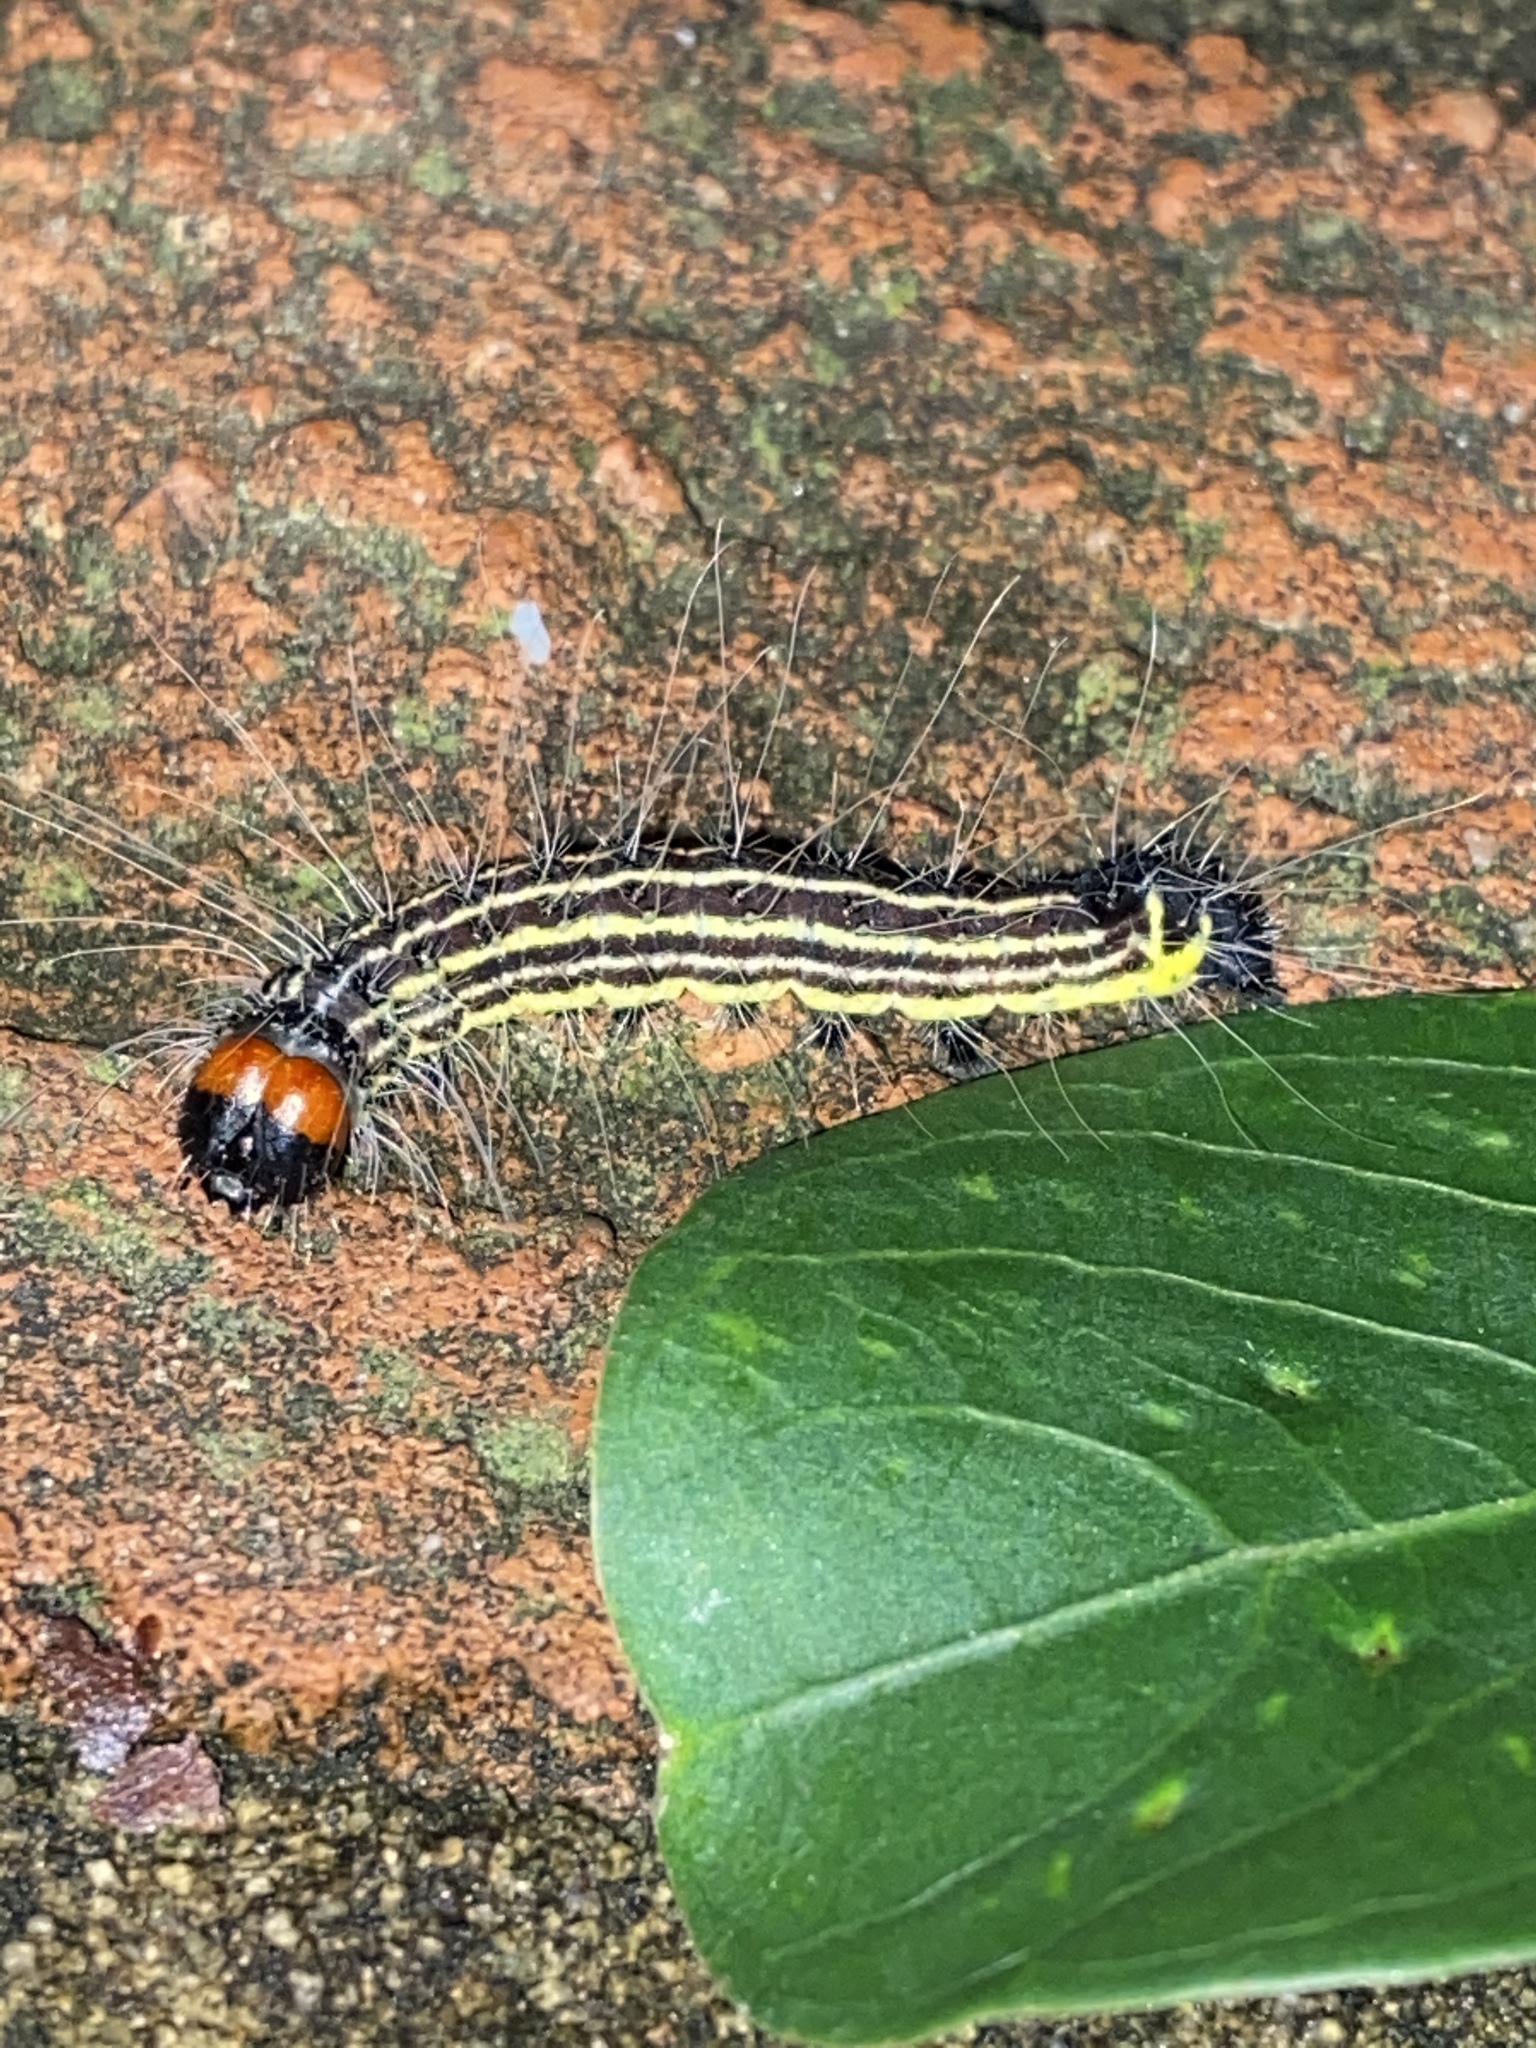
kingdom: Animalia
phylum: Arthropoda
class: Insecta
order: Lepidoptera
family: Noctuidae
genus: Acronicta
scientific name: Acronicta radcliffei
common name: Radcliffe's dagger
